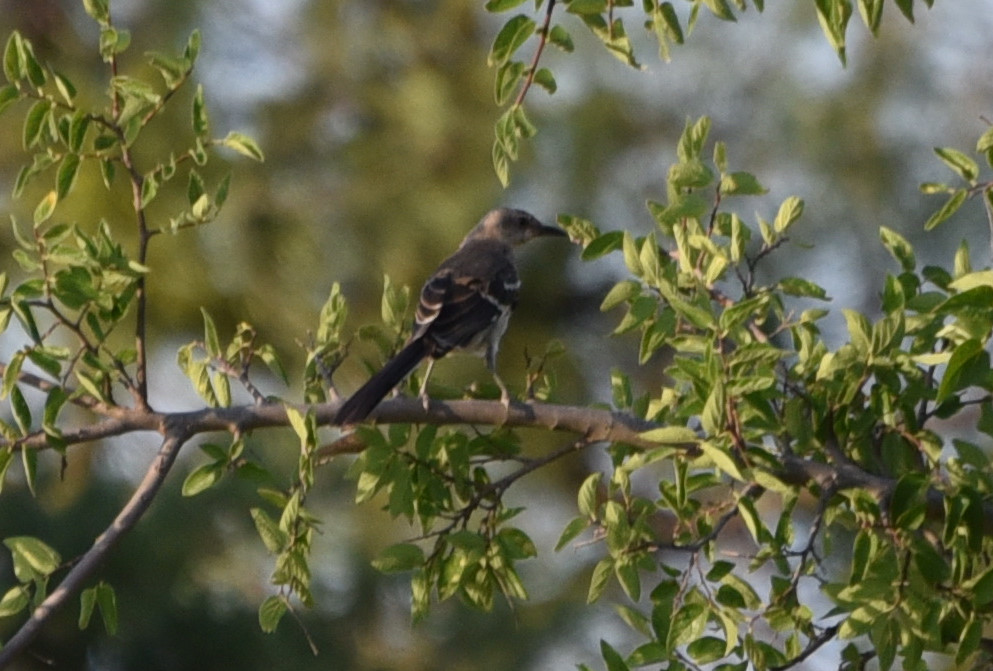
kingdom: Animalia
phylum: Chordata
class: Aves
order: Passeriformes
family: Mimidae
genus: Mimus
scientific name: Mimus polyglottos
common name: Northern mockingbird
